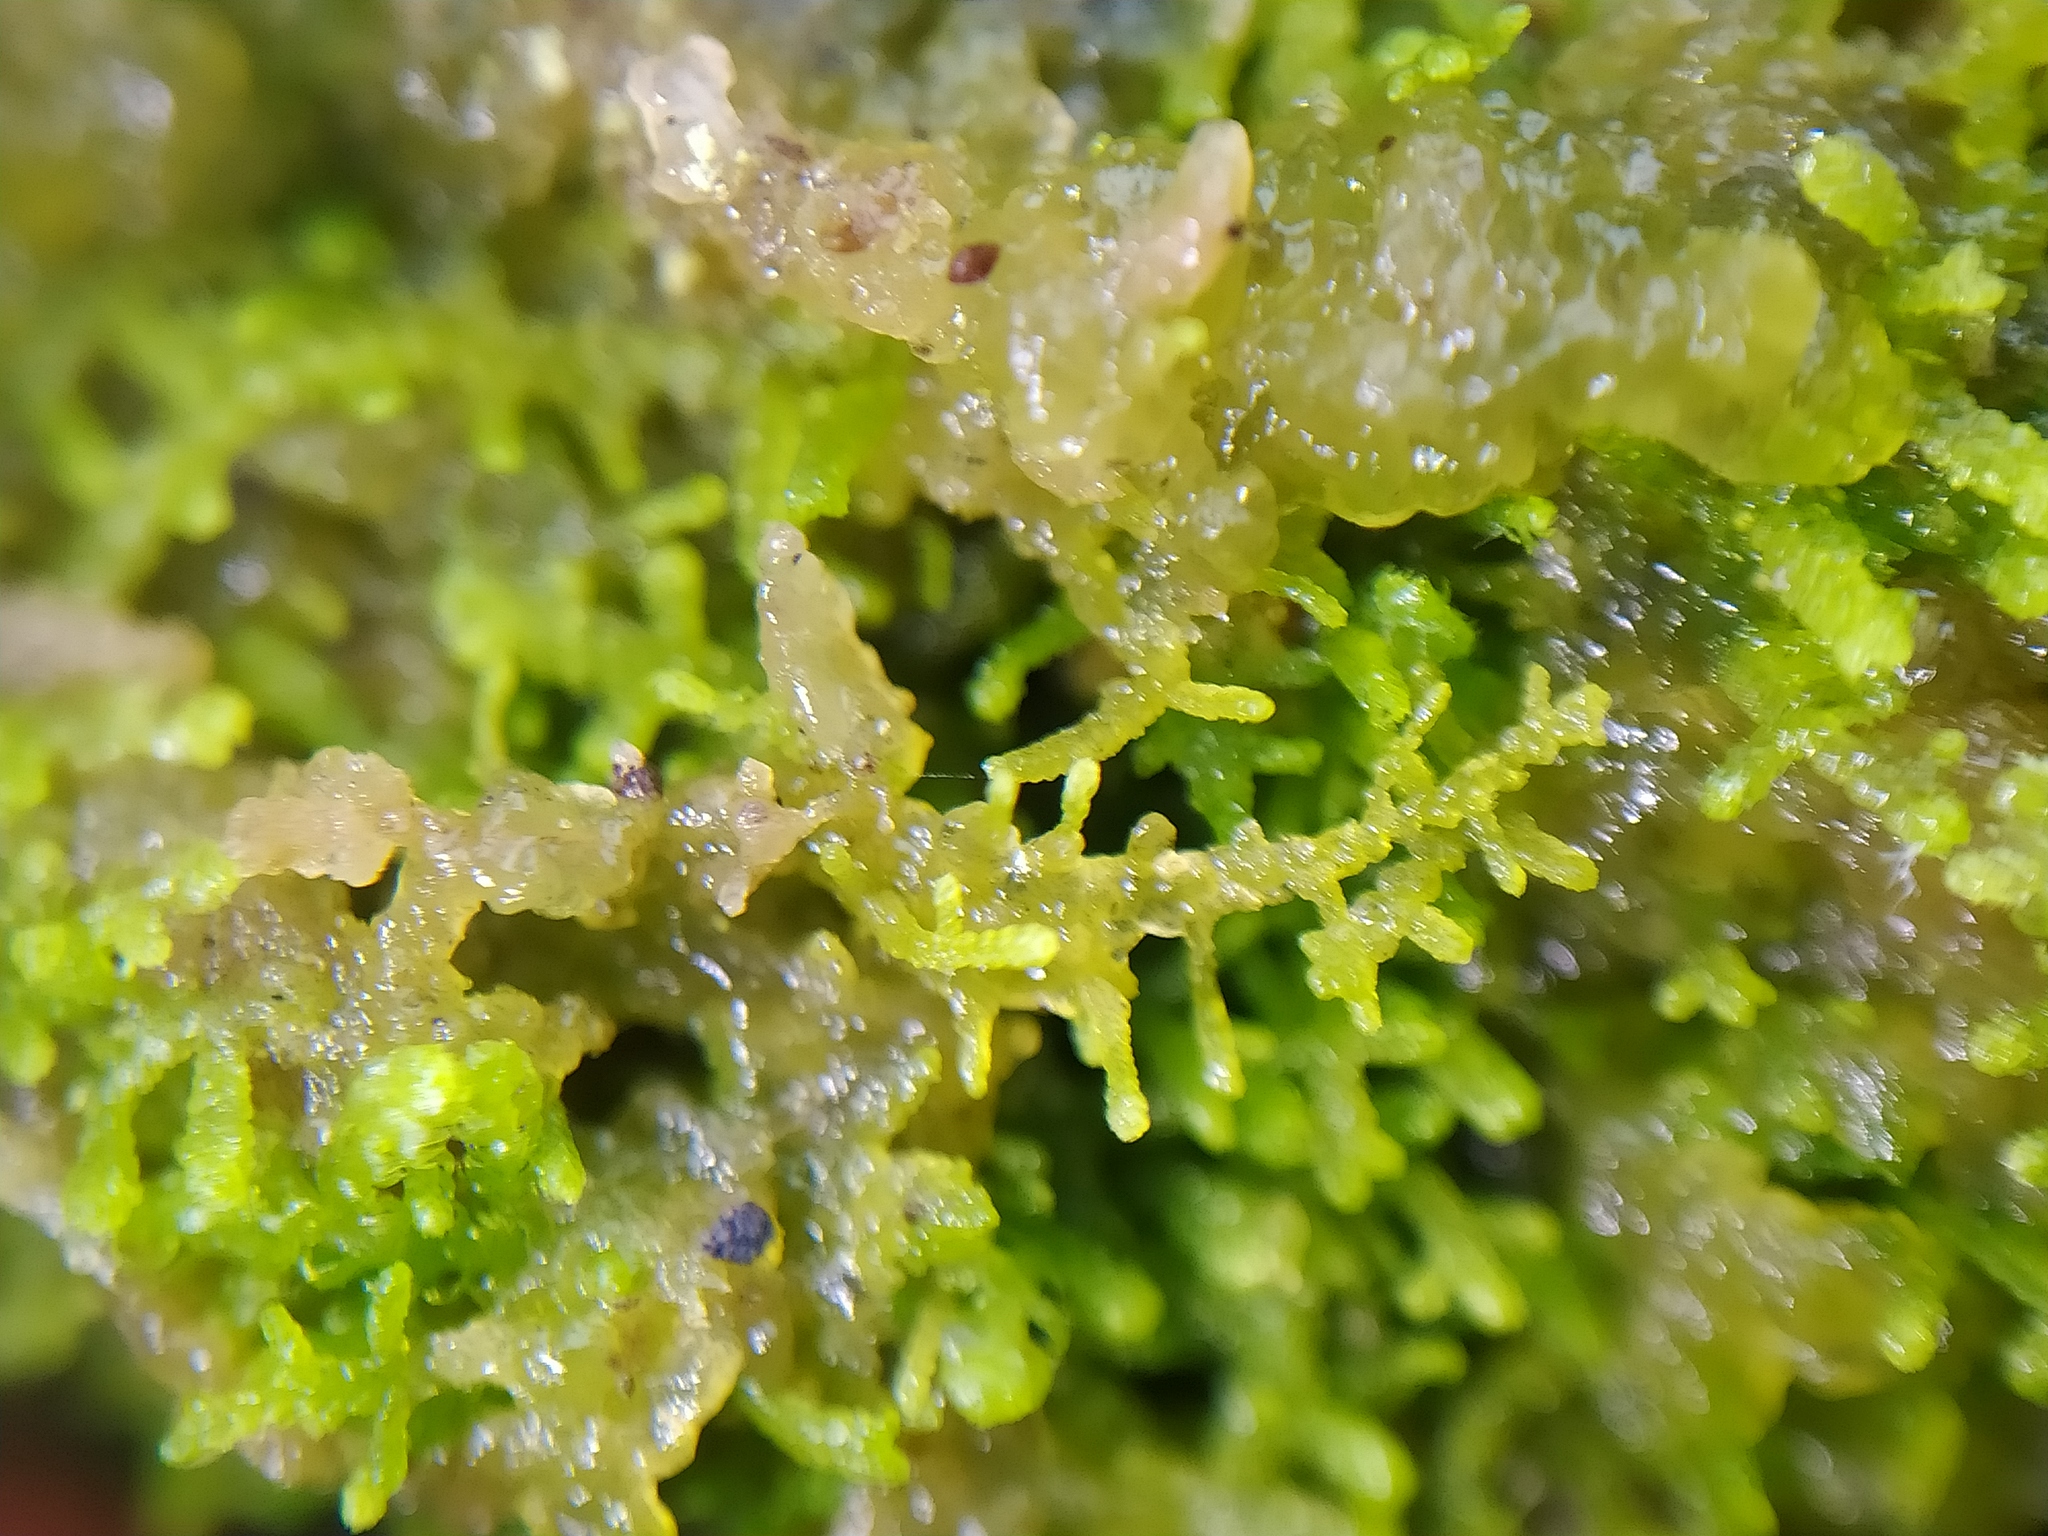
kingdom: Plantae
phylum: Marchantiophyta
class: Jungermanniopsida
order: Jungermanniales
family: Lepidoziaceae
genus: Lepidozia
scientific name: Lepidozia reptans
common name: Creeping fingerwort
